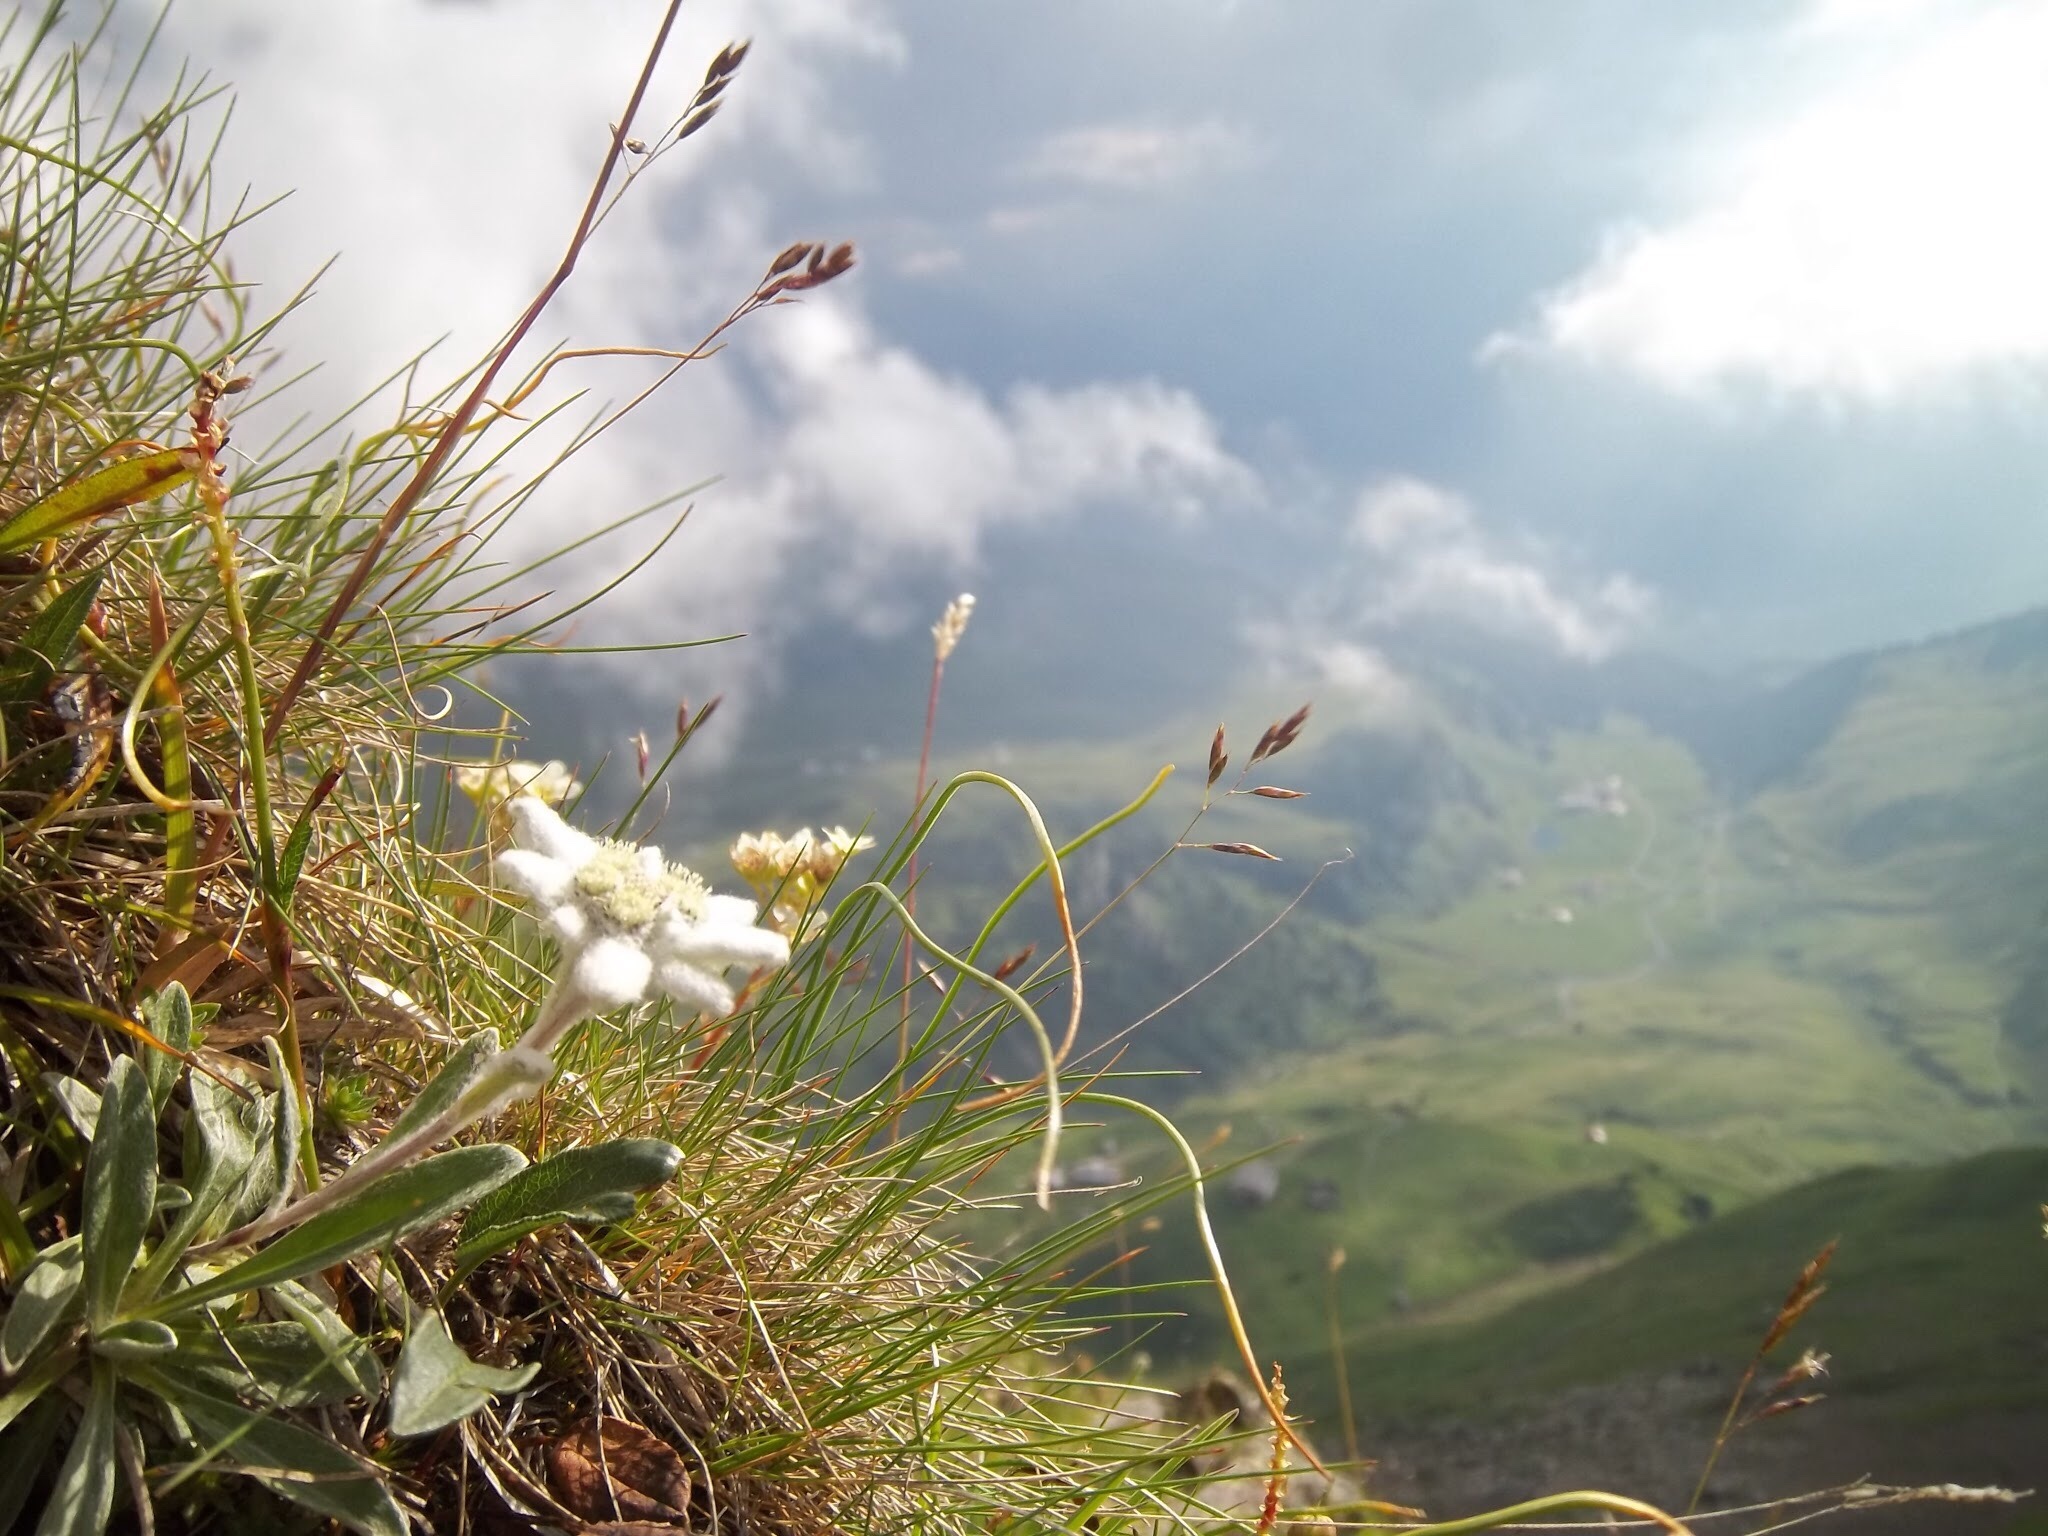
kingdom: Plantae
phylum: Tracheophyta
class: Magnoliopsida
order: Asterales
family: Asteraceae
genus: Leontopodium
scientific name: Leontopodium nivale
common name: Edelweiss
